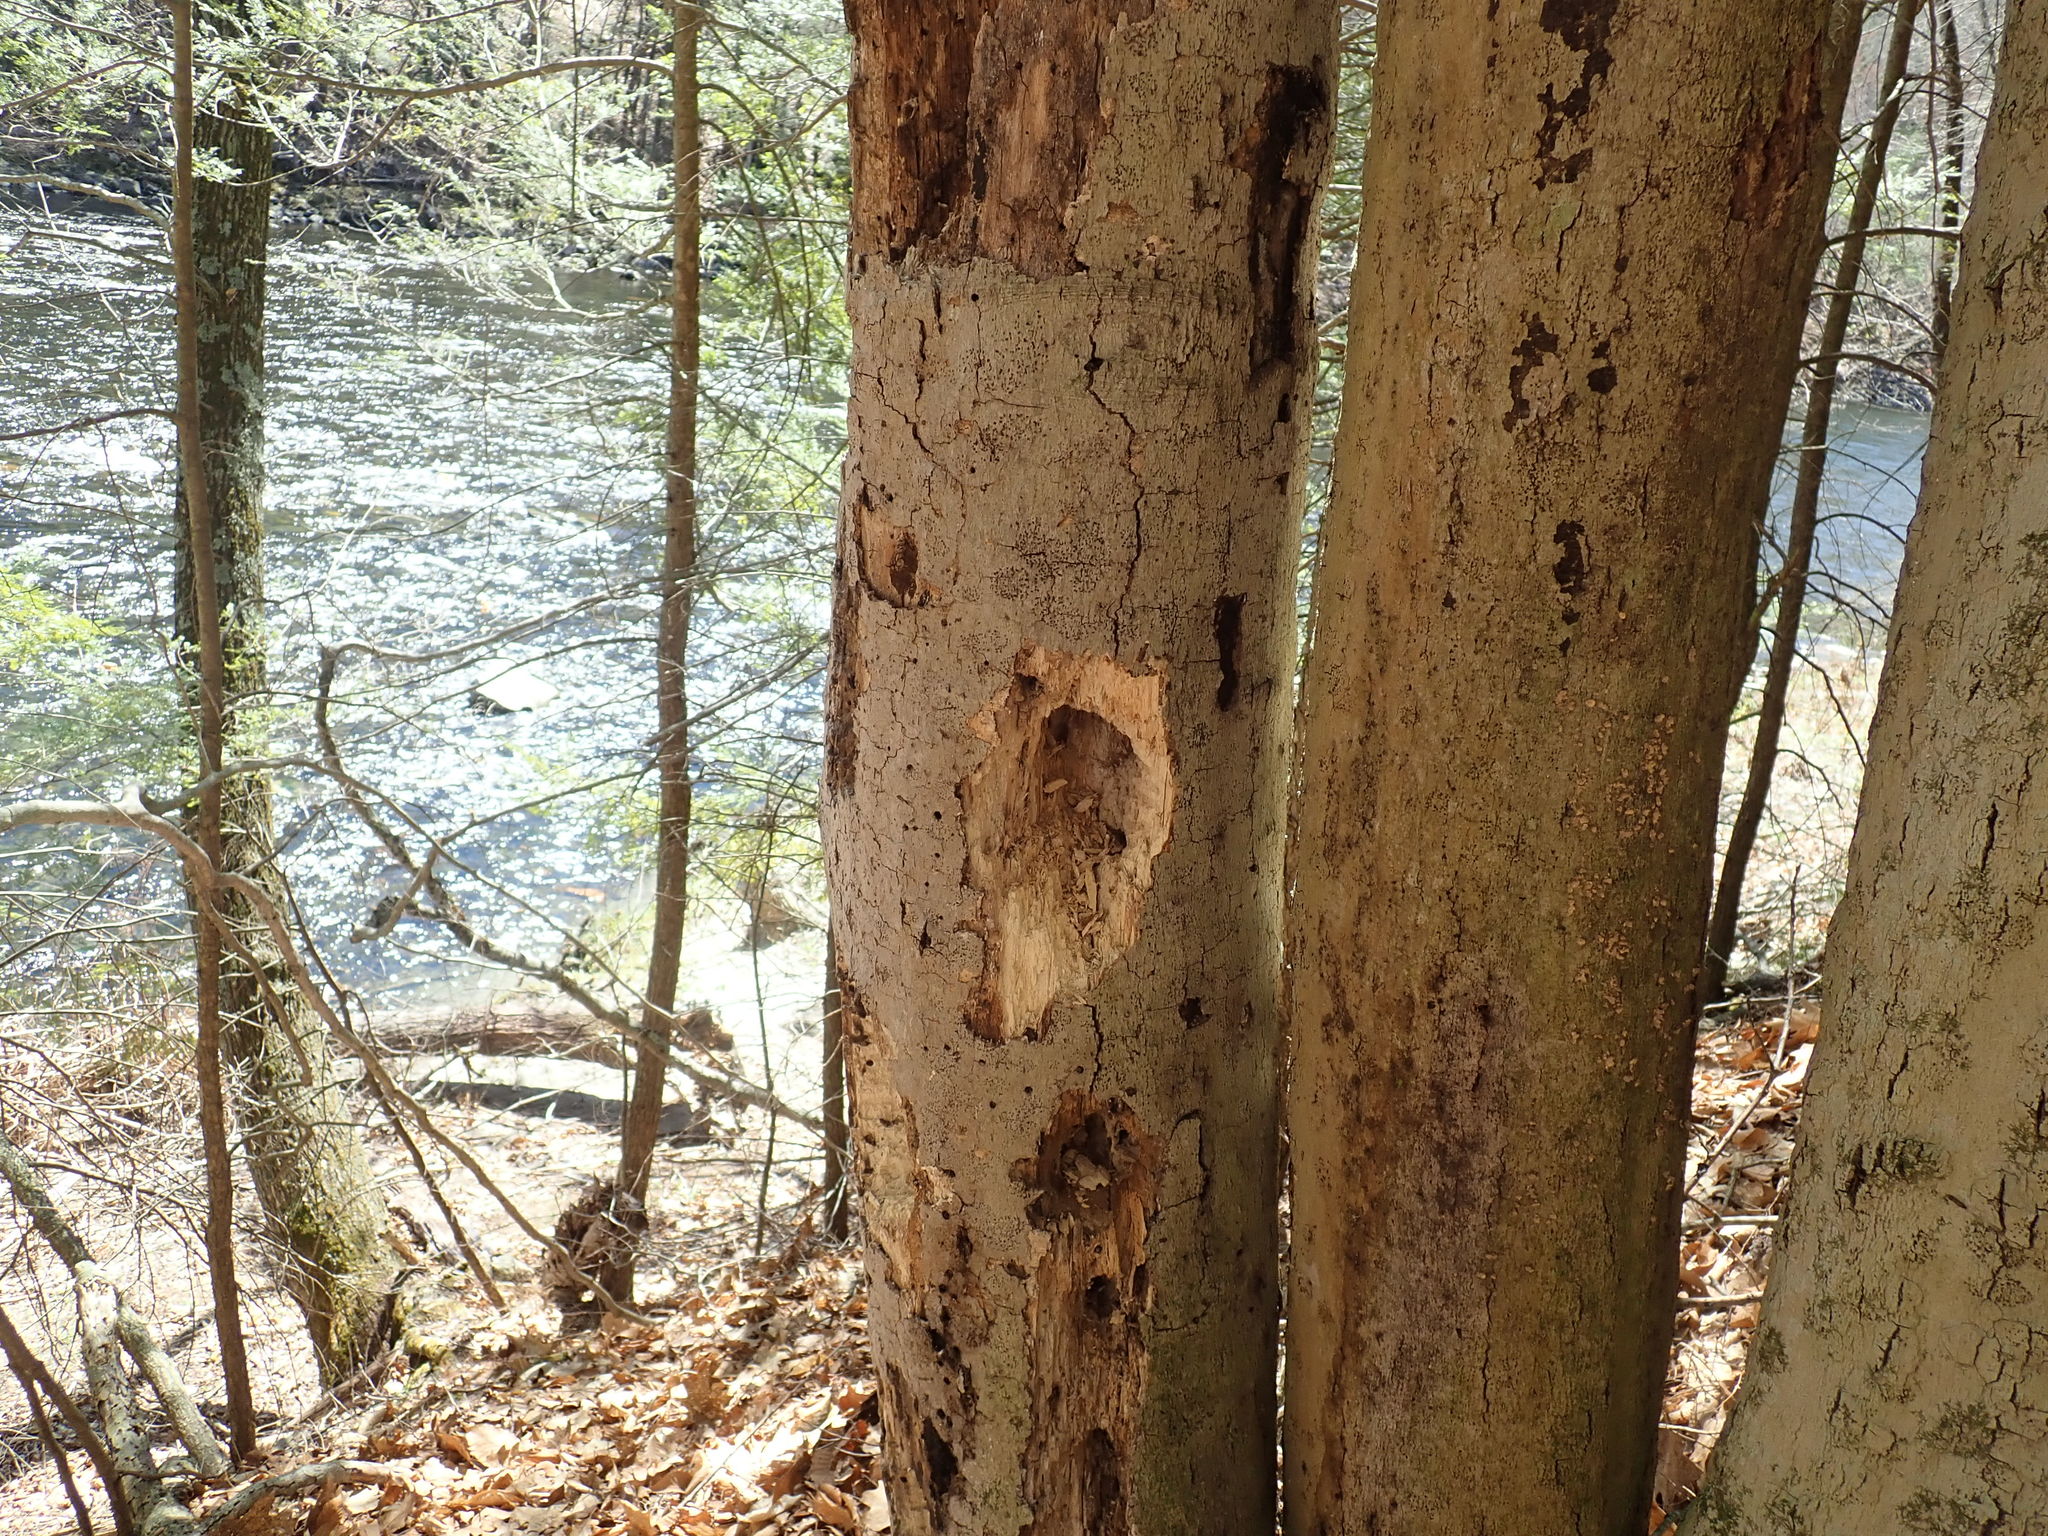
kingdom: Animalia
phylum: Chordata
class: Aves
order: Piciformes
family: Picidae
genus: Dryocopus
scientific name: Dryocopus pileatus
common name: Pileated woodpecker
